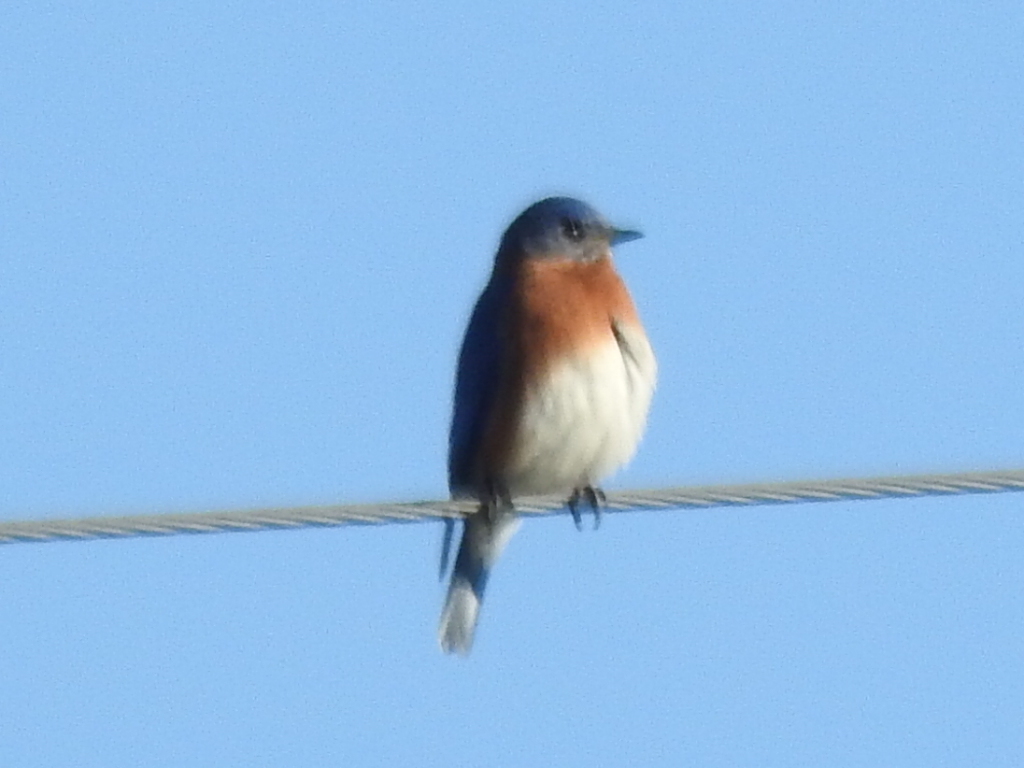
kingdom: Animalia
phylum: Chordata
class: Aves
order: Passeriformes
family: Turdidae
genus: Sialia
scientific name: Sialia sialis
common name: Eastern bluebird
